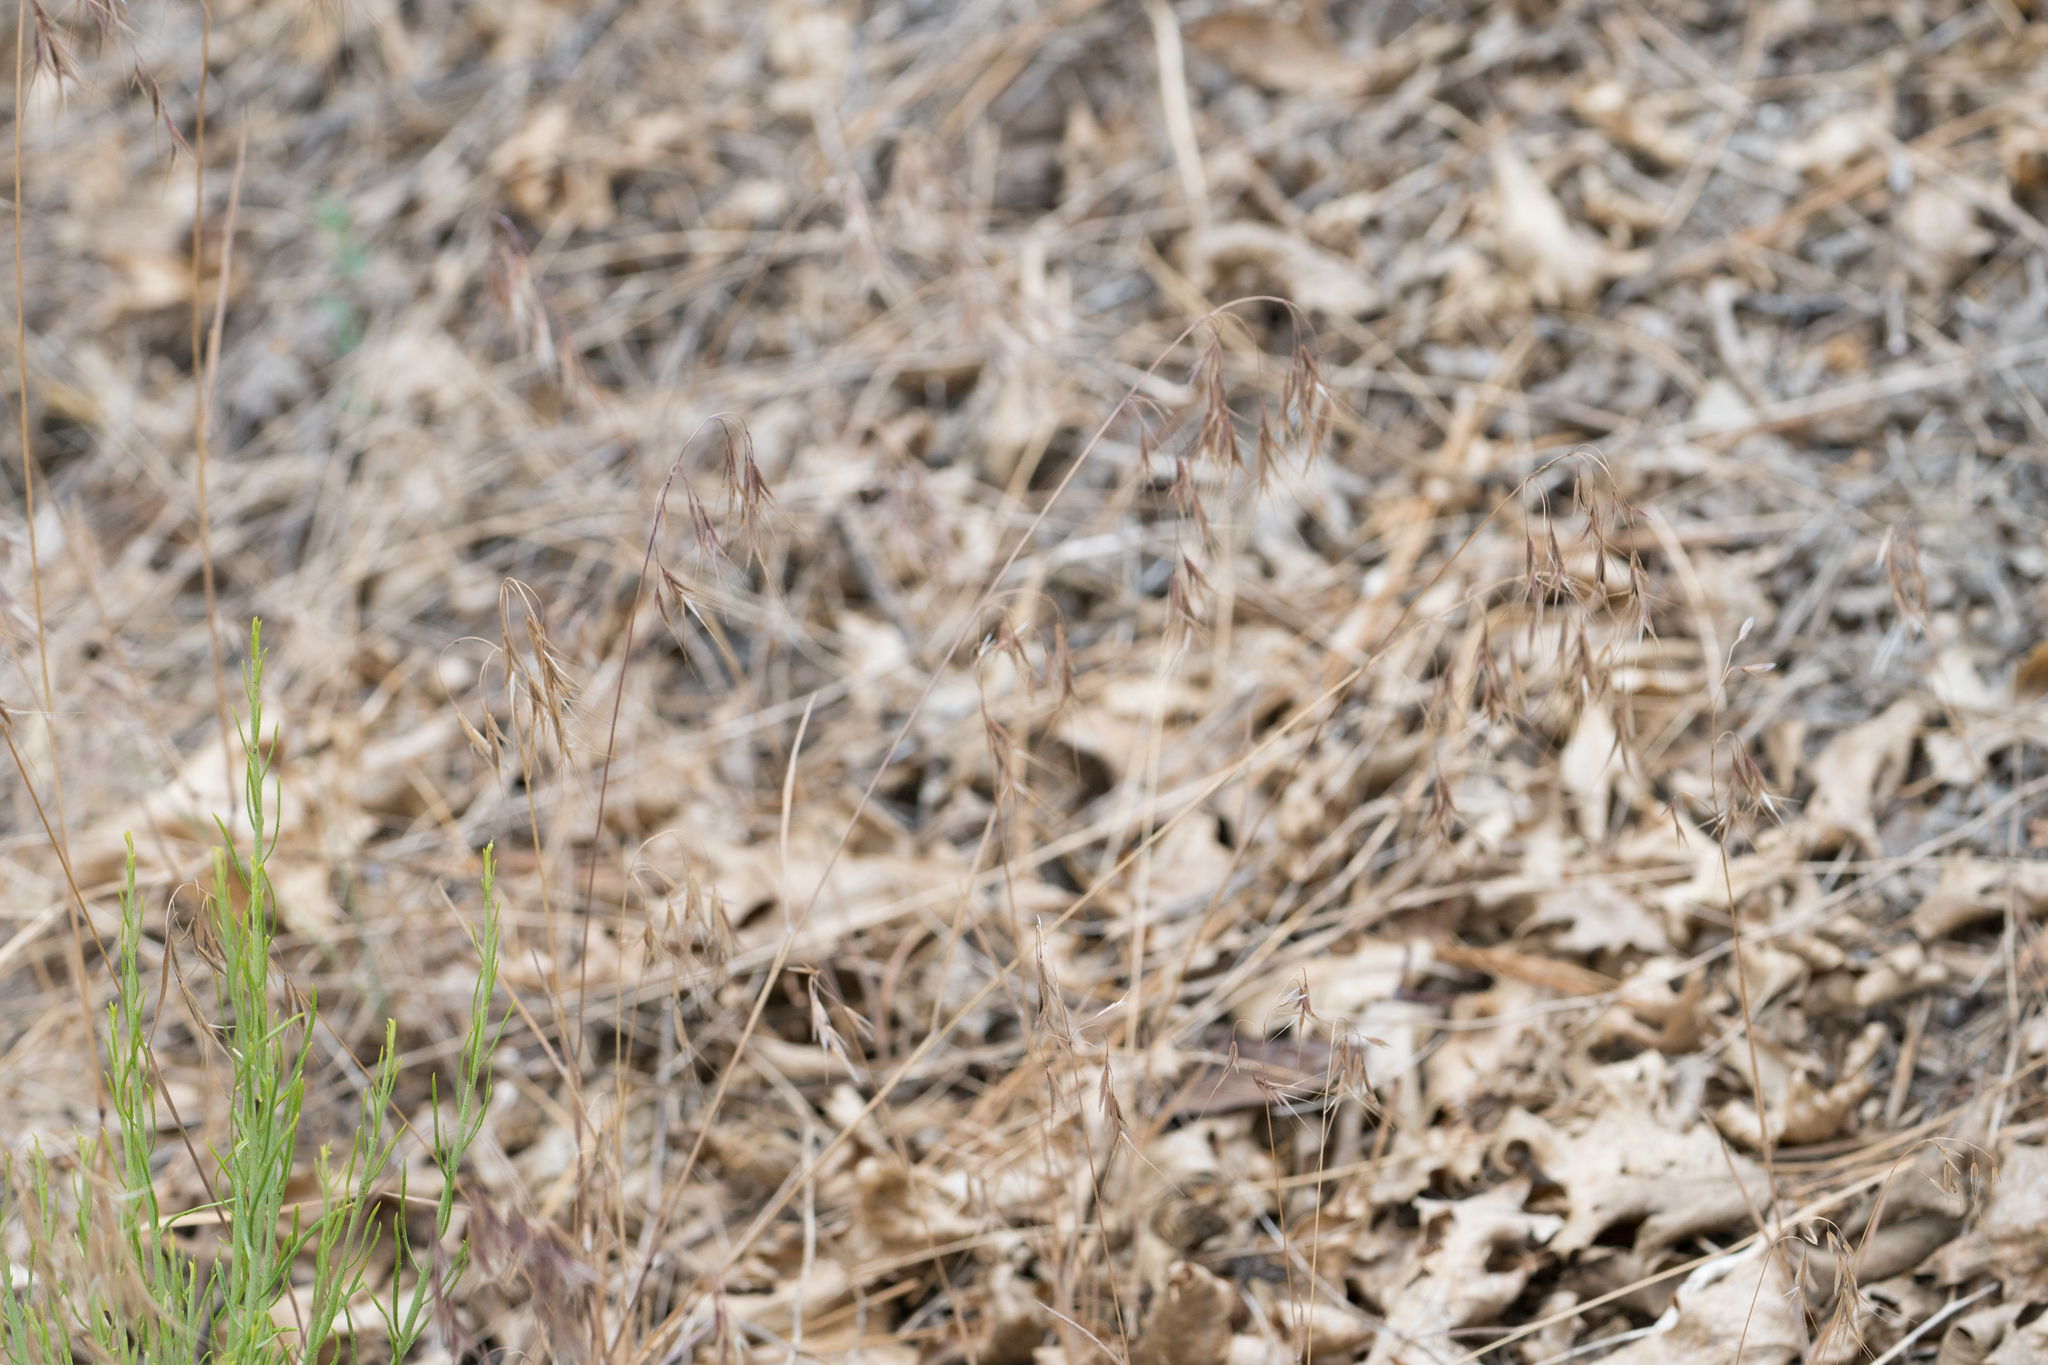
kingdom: Plantae
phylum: Tracheophyta
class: Liliopsida
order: Poales
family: Poaceae
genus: Bromus
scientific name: Bromus tectorum
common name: Cheatgrass
